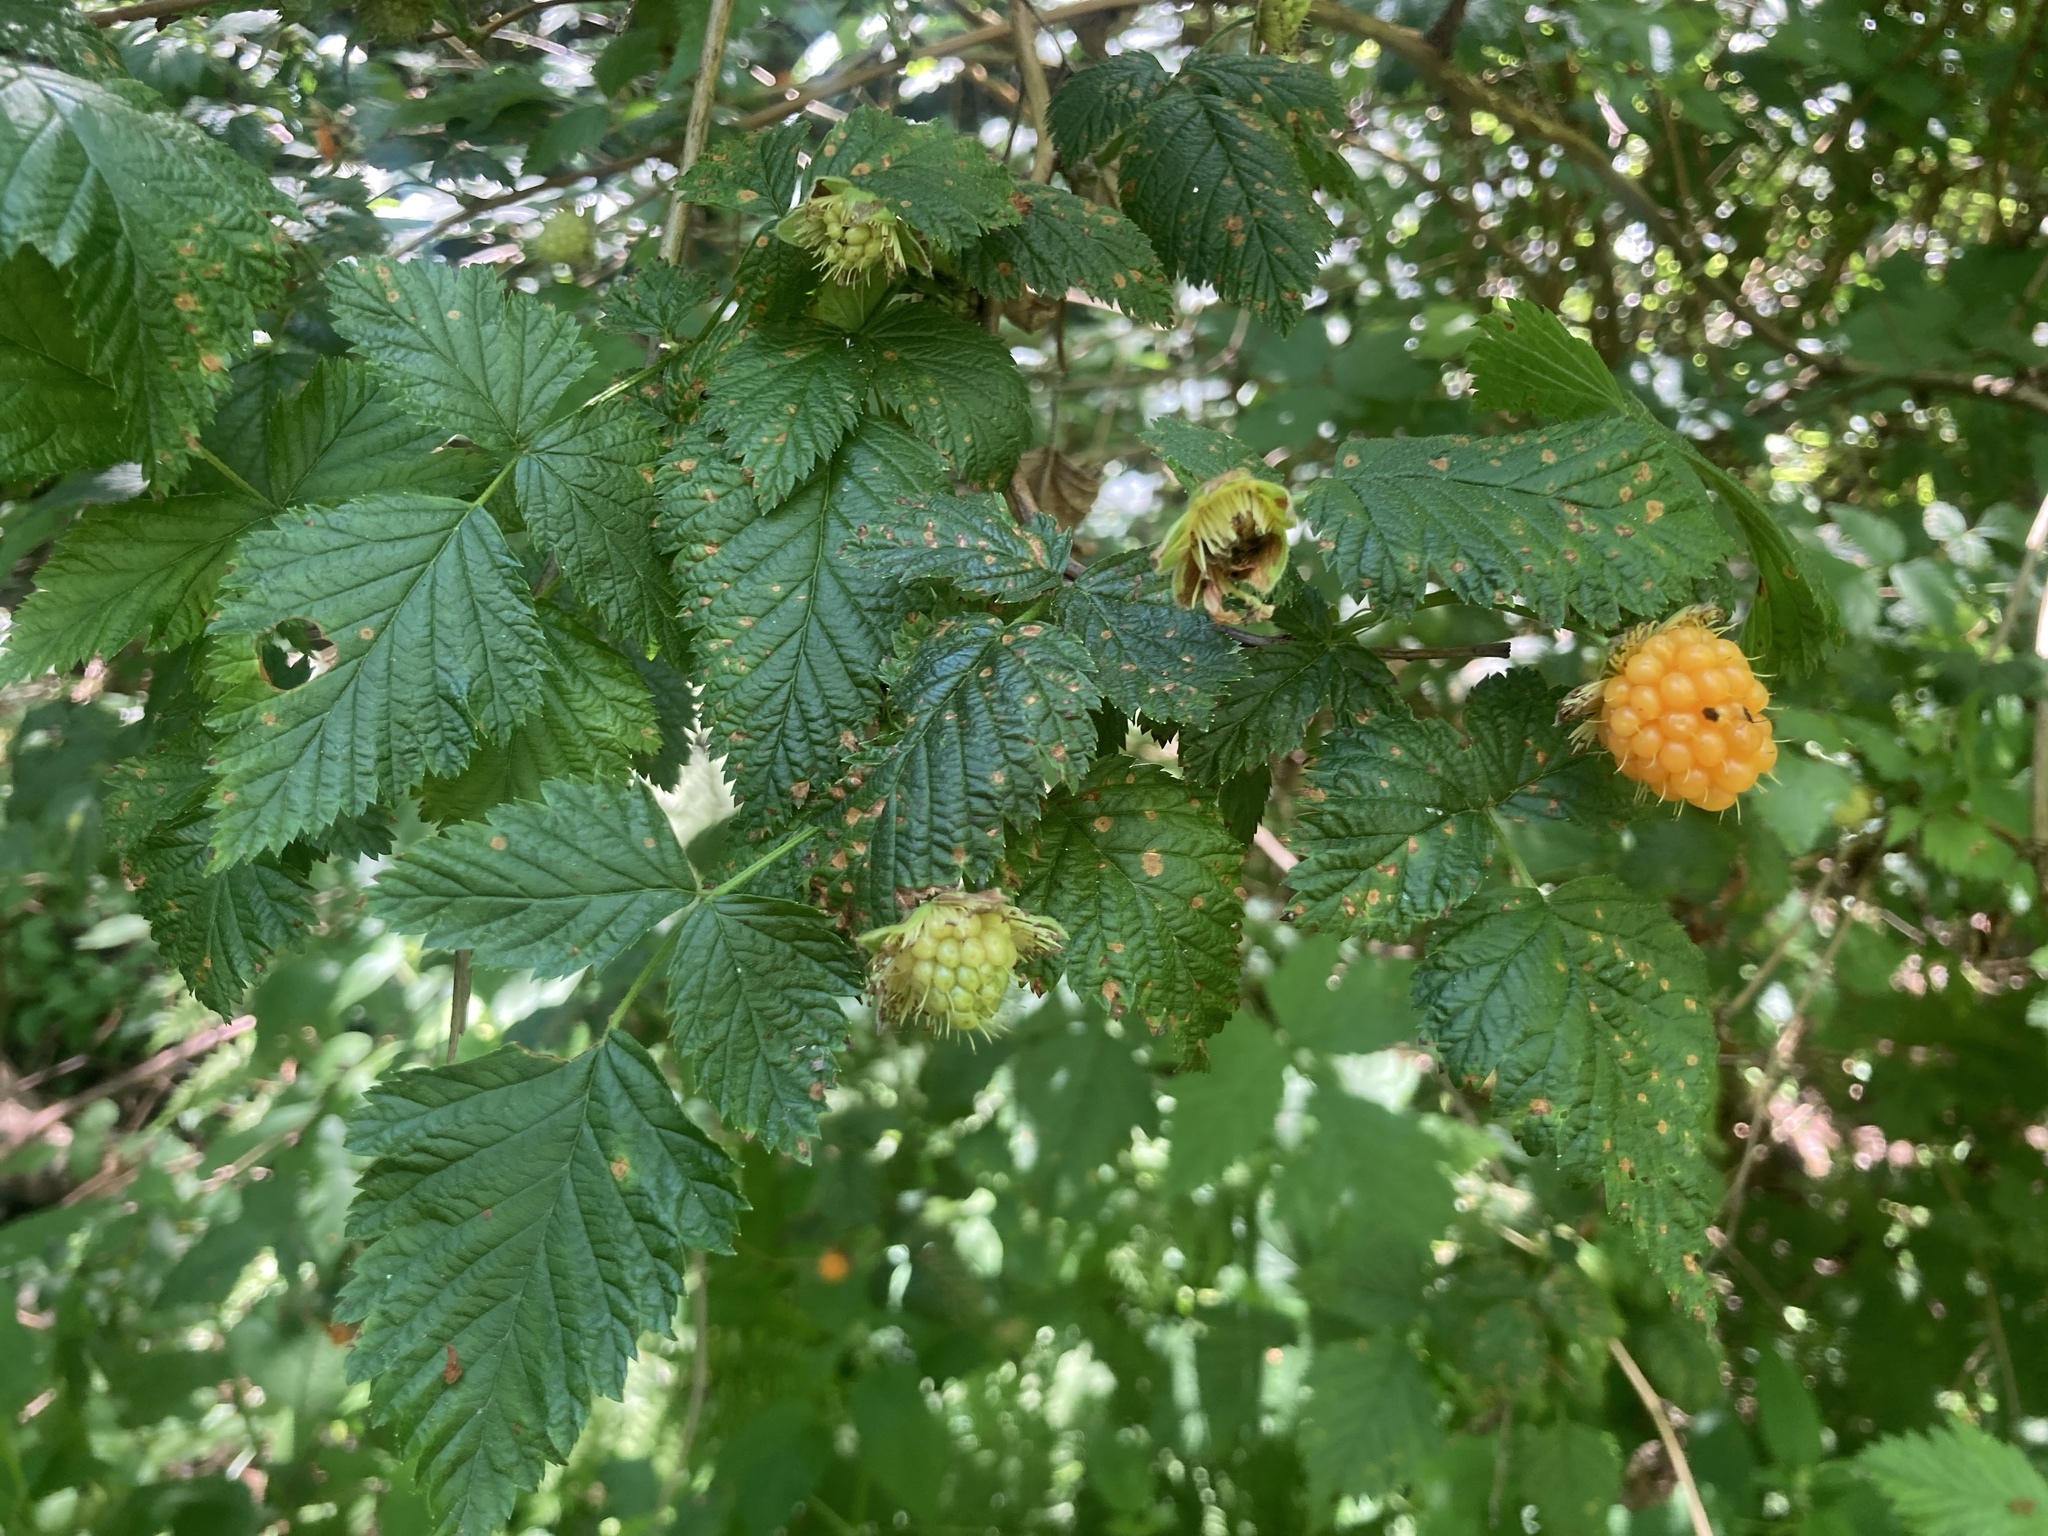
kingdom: Plantae
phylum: Tracheophyta
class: Magnoliopsida
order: Rosales
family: Rosaceae
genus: Rubus
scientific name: Rubus spectabilis
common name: Salmonberry
